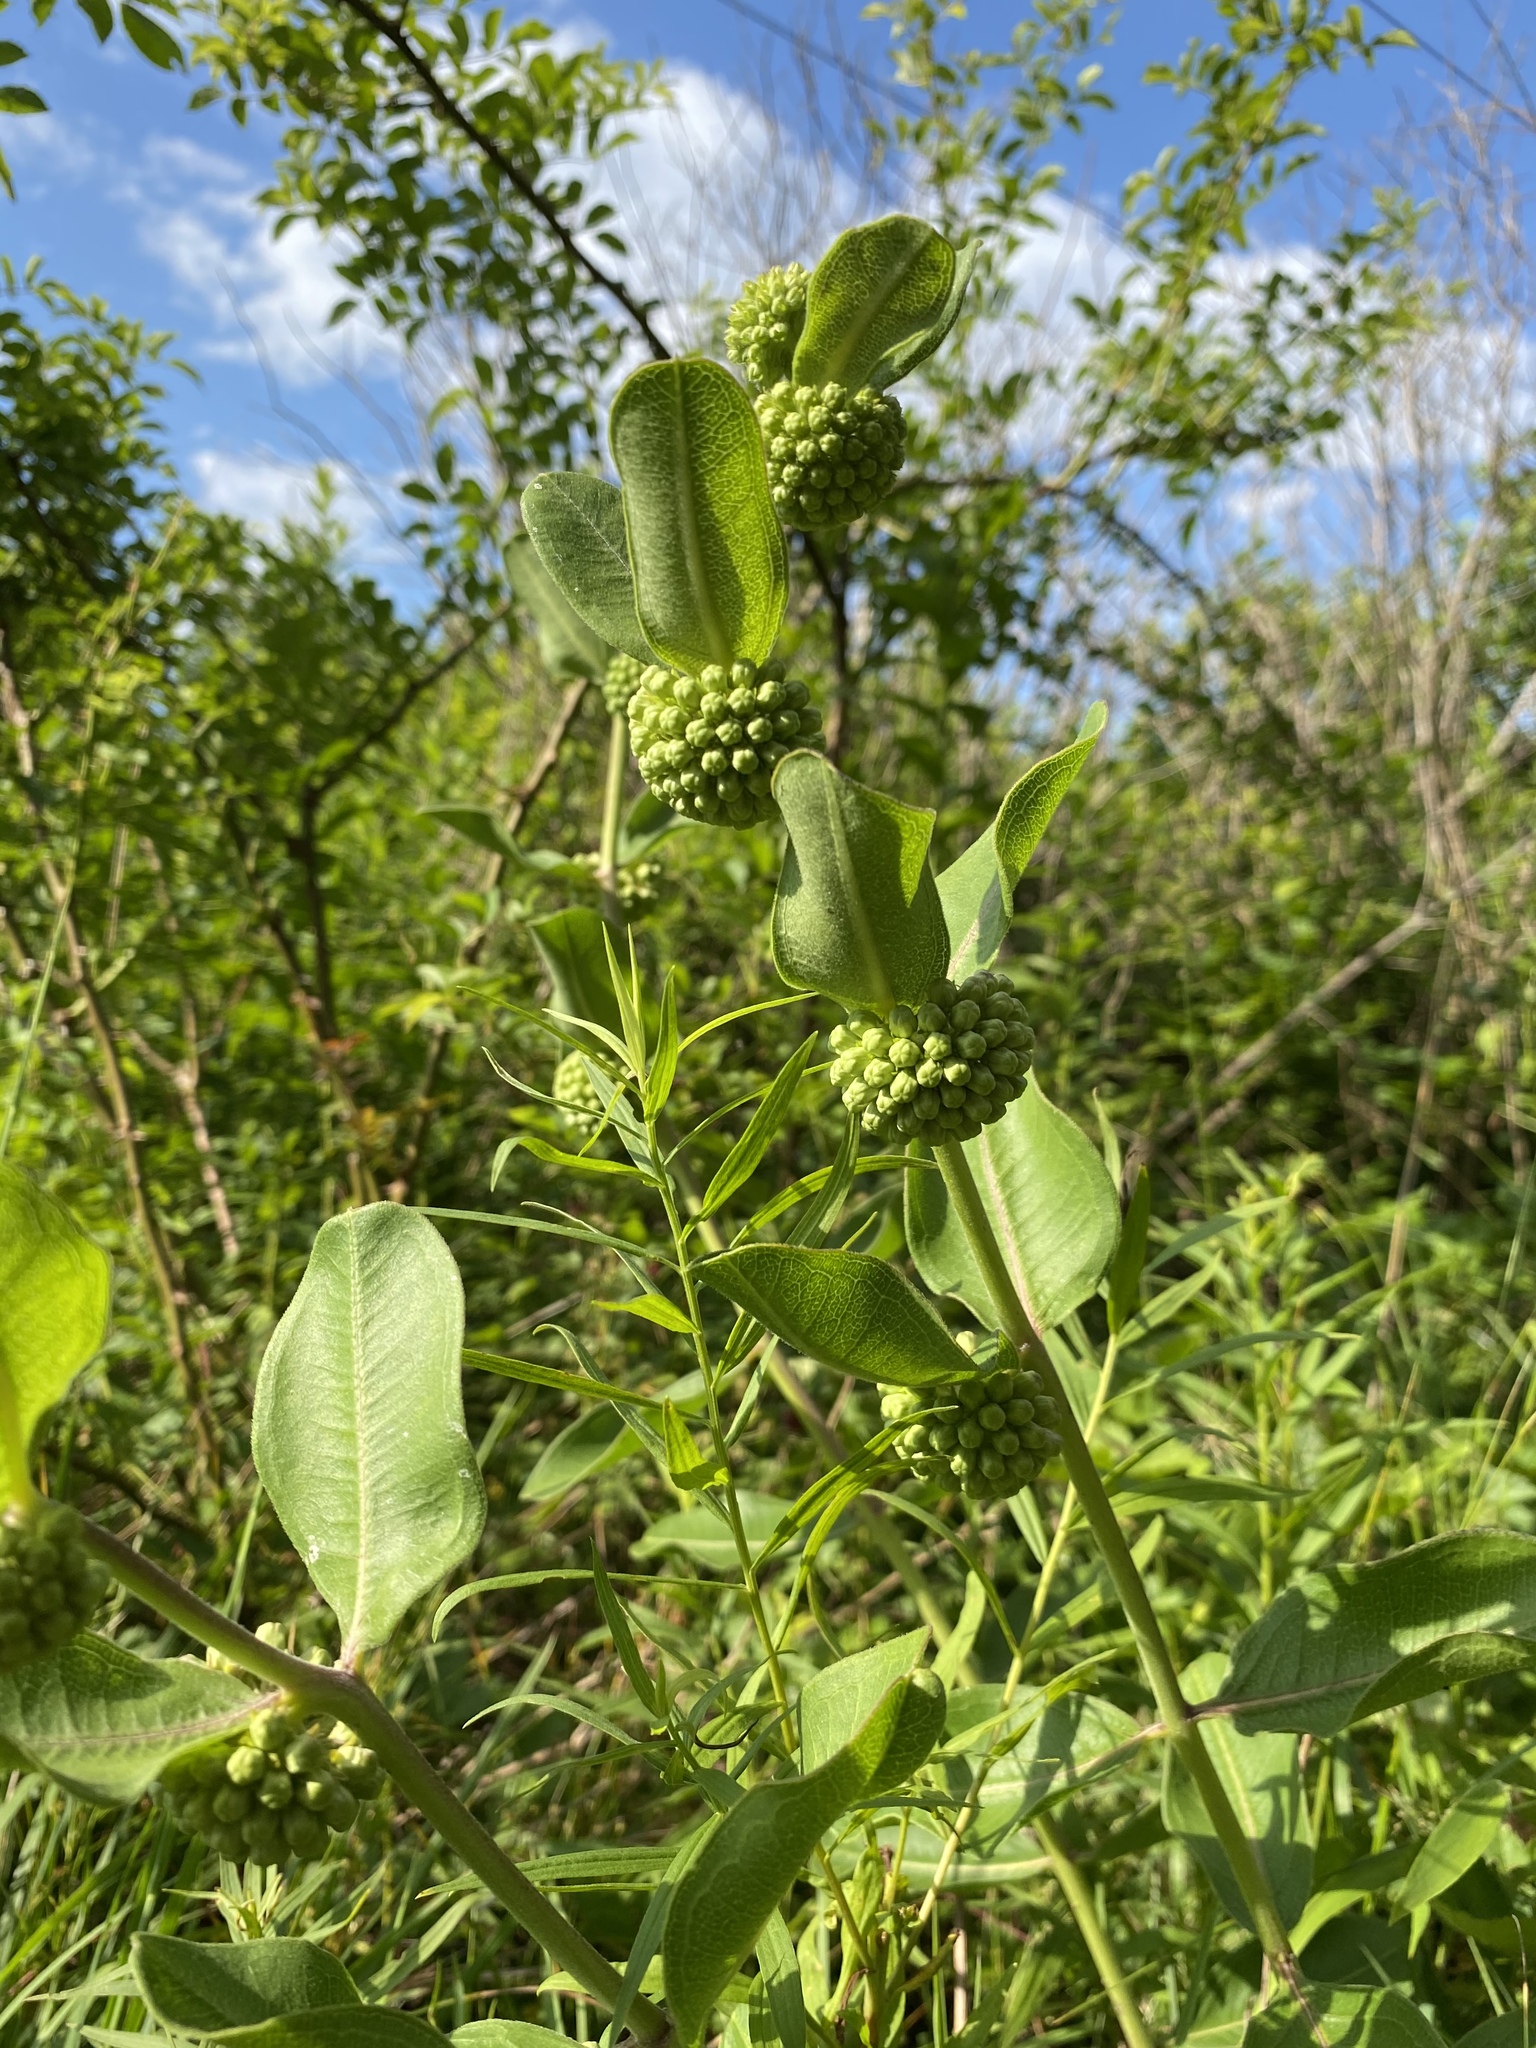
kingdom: Plantae
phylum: Tracheophyta
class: Magnoliopsida
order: Gentianales
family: Apocynaceae
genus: Asclepias
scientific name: Asclepias viridiflora
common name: Green comet milkweed
